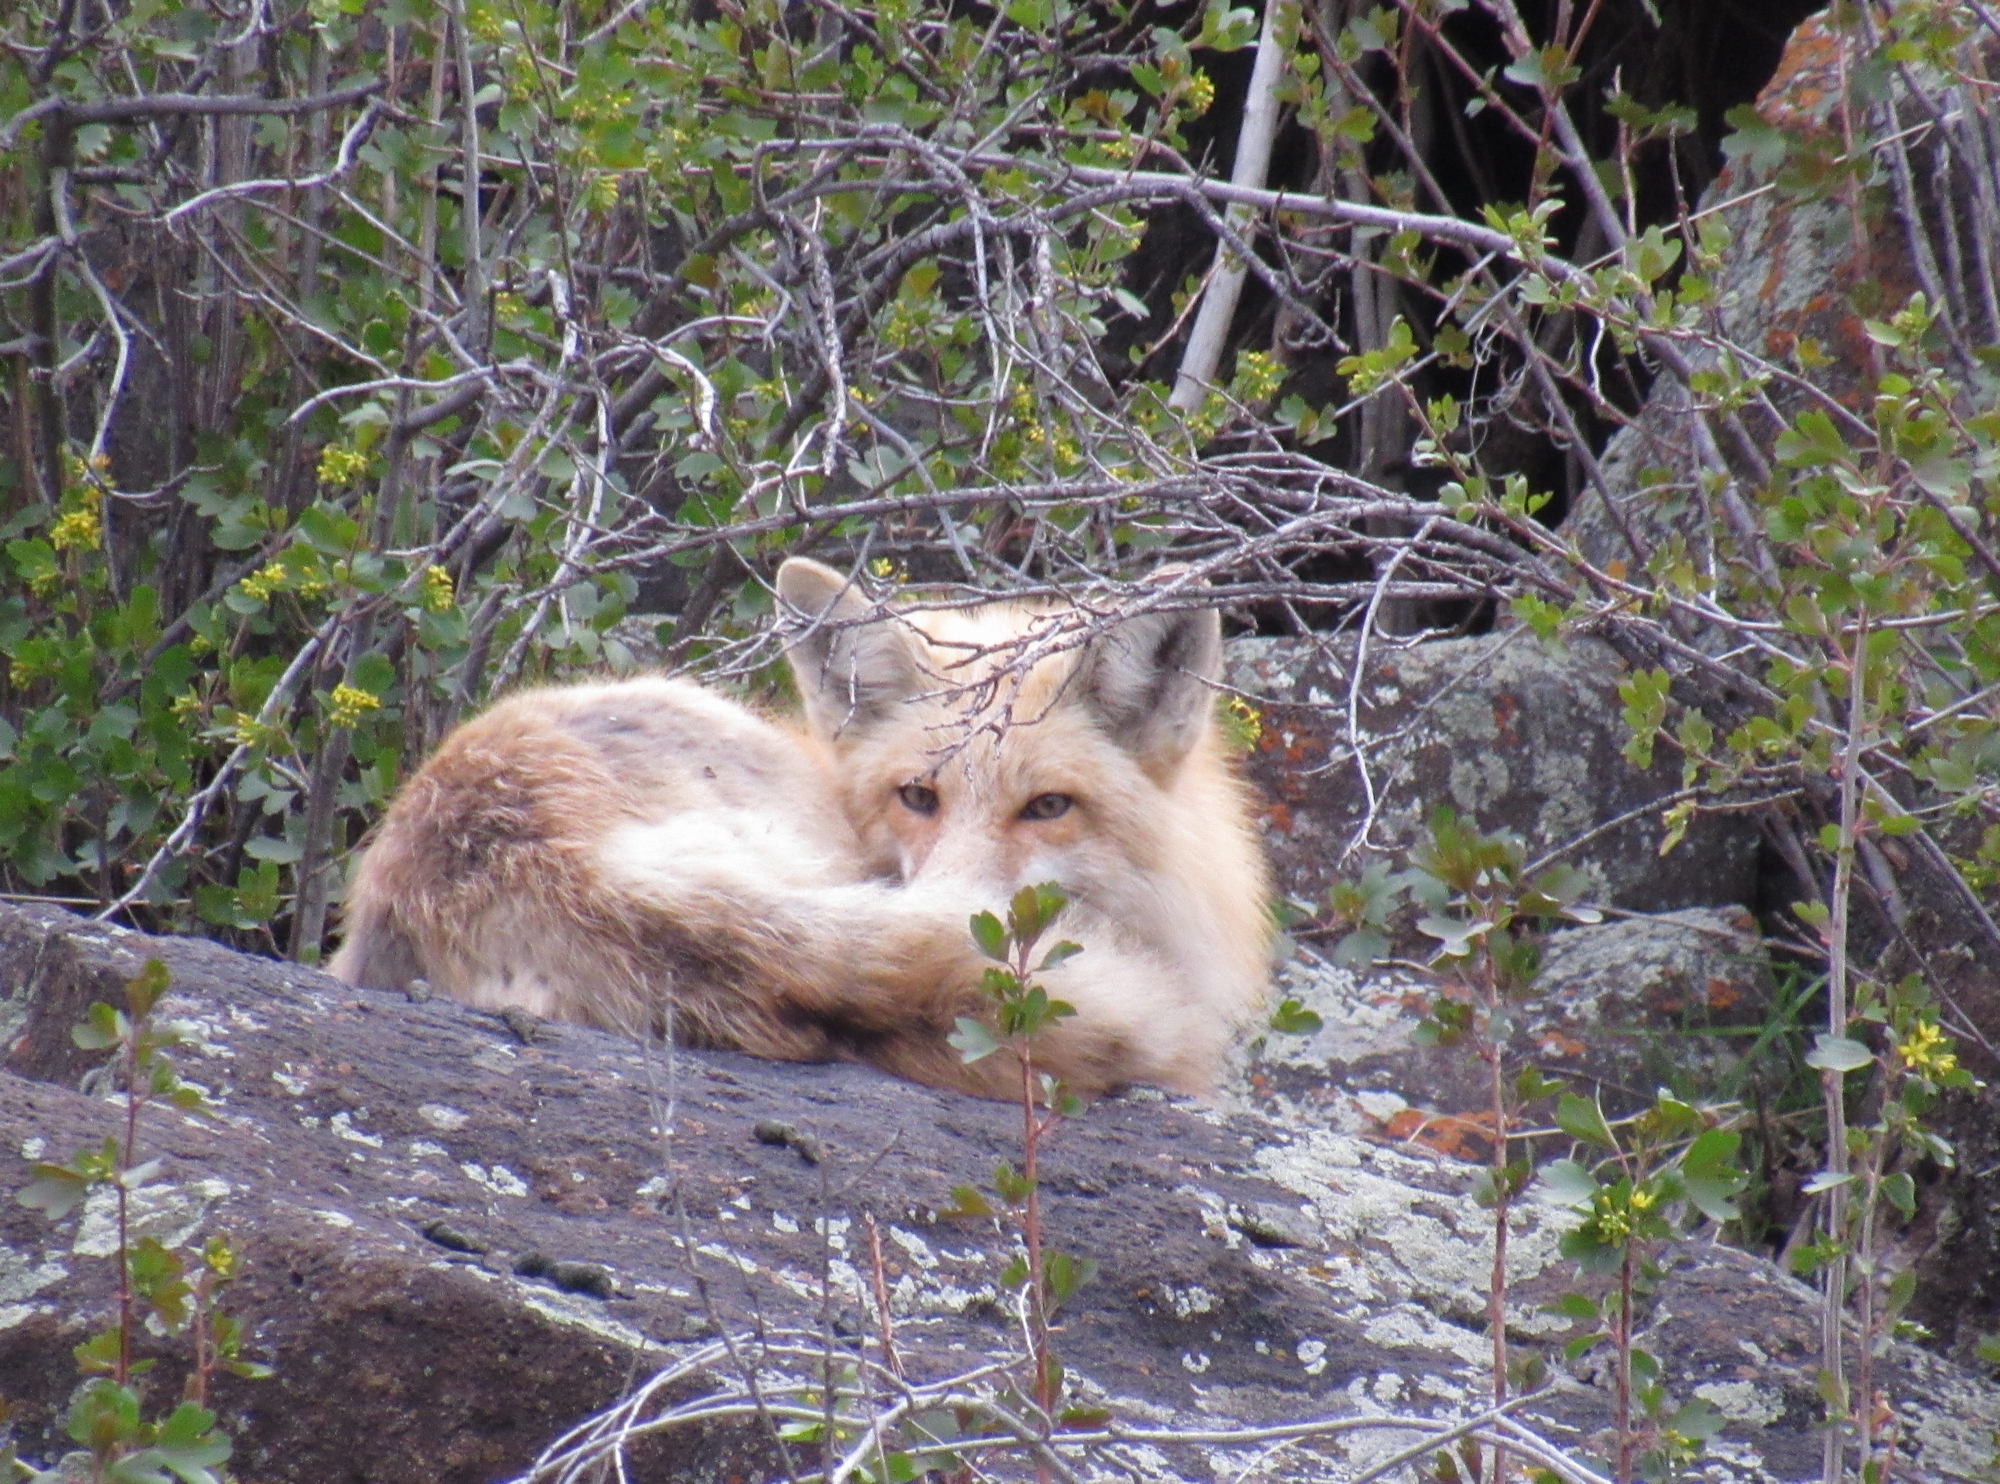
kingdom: Animalia
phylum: Chordata
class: Mammalia
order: Carnivora
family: Canidae
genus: Vulpes
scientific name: Vulpes vulpes
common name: Red fox
